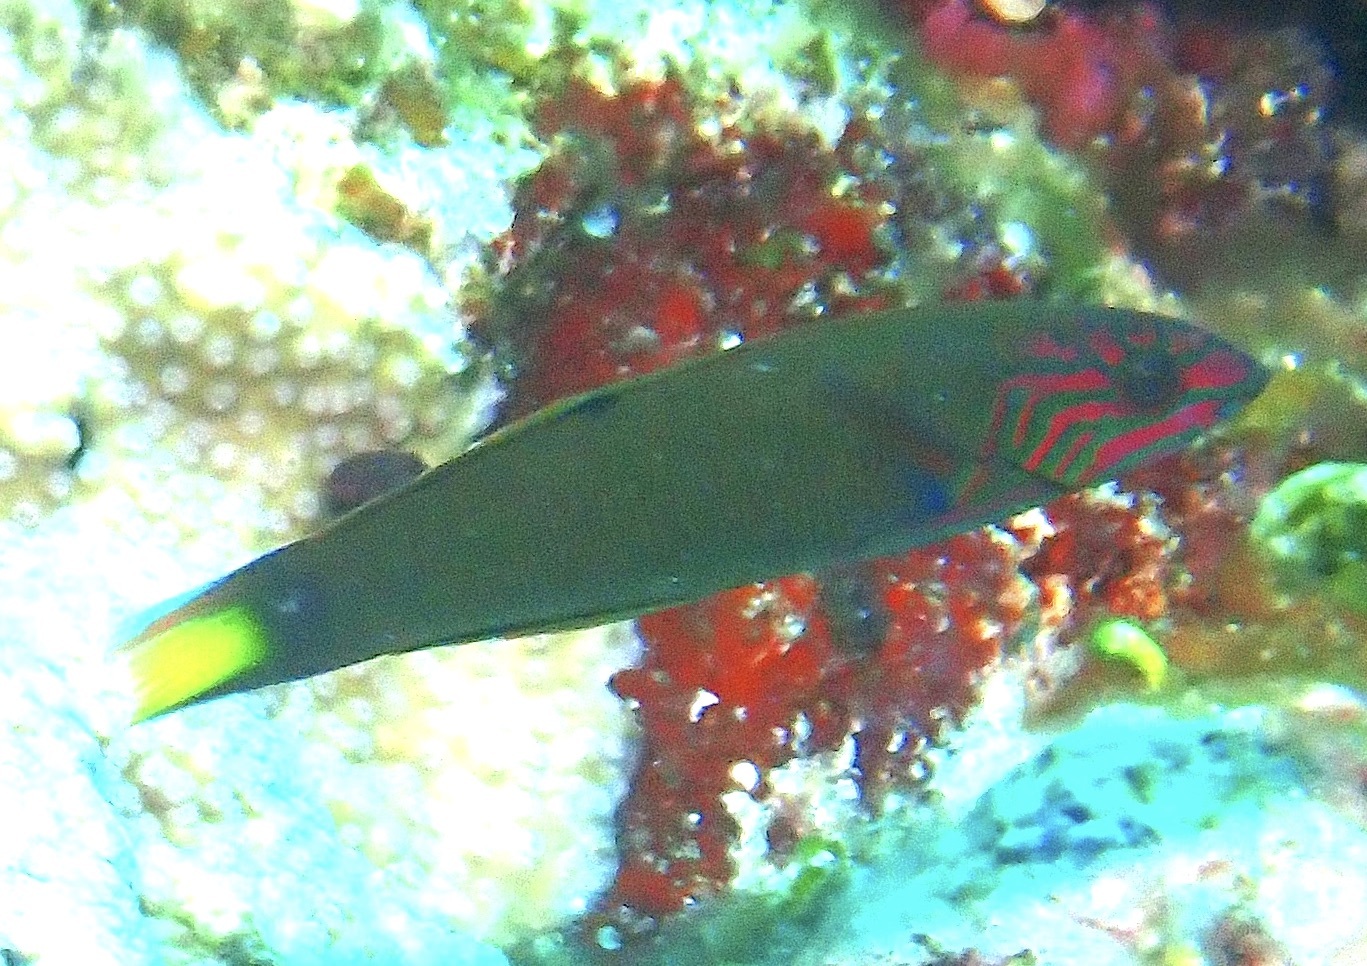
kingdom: Animalia
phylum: Chordata
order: Perciformes
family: Labridae
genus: Thalassoma
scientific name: Thalassoma lunare
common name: Blue wrasse
